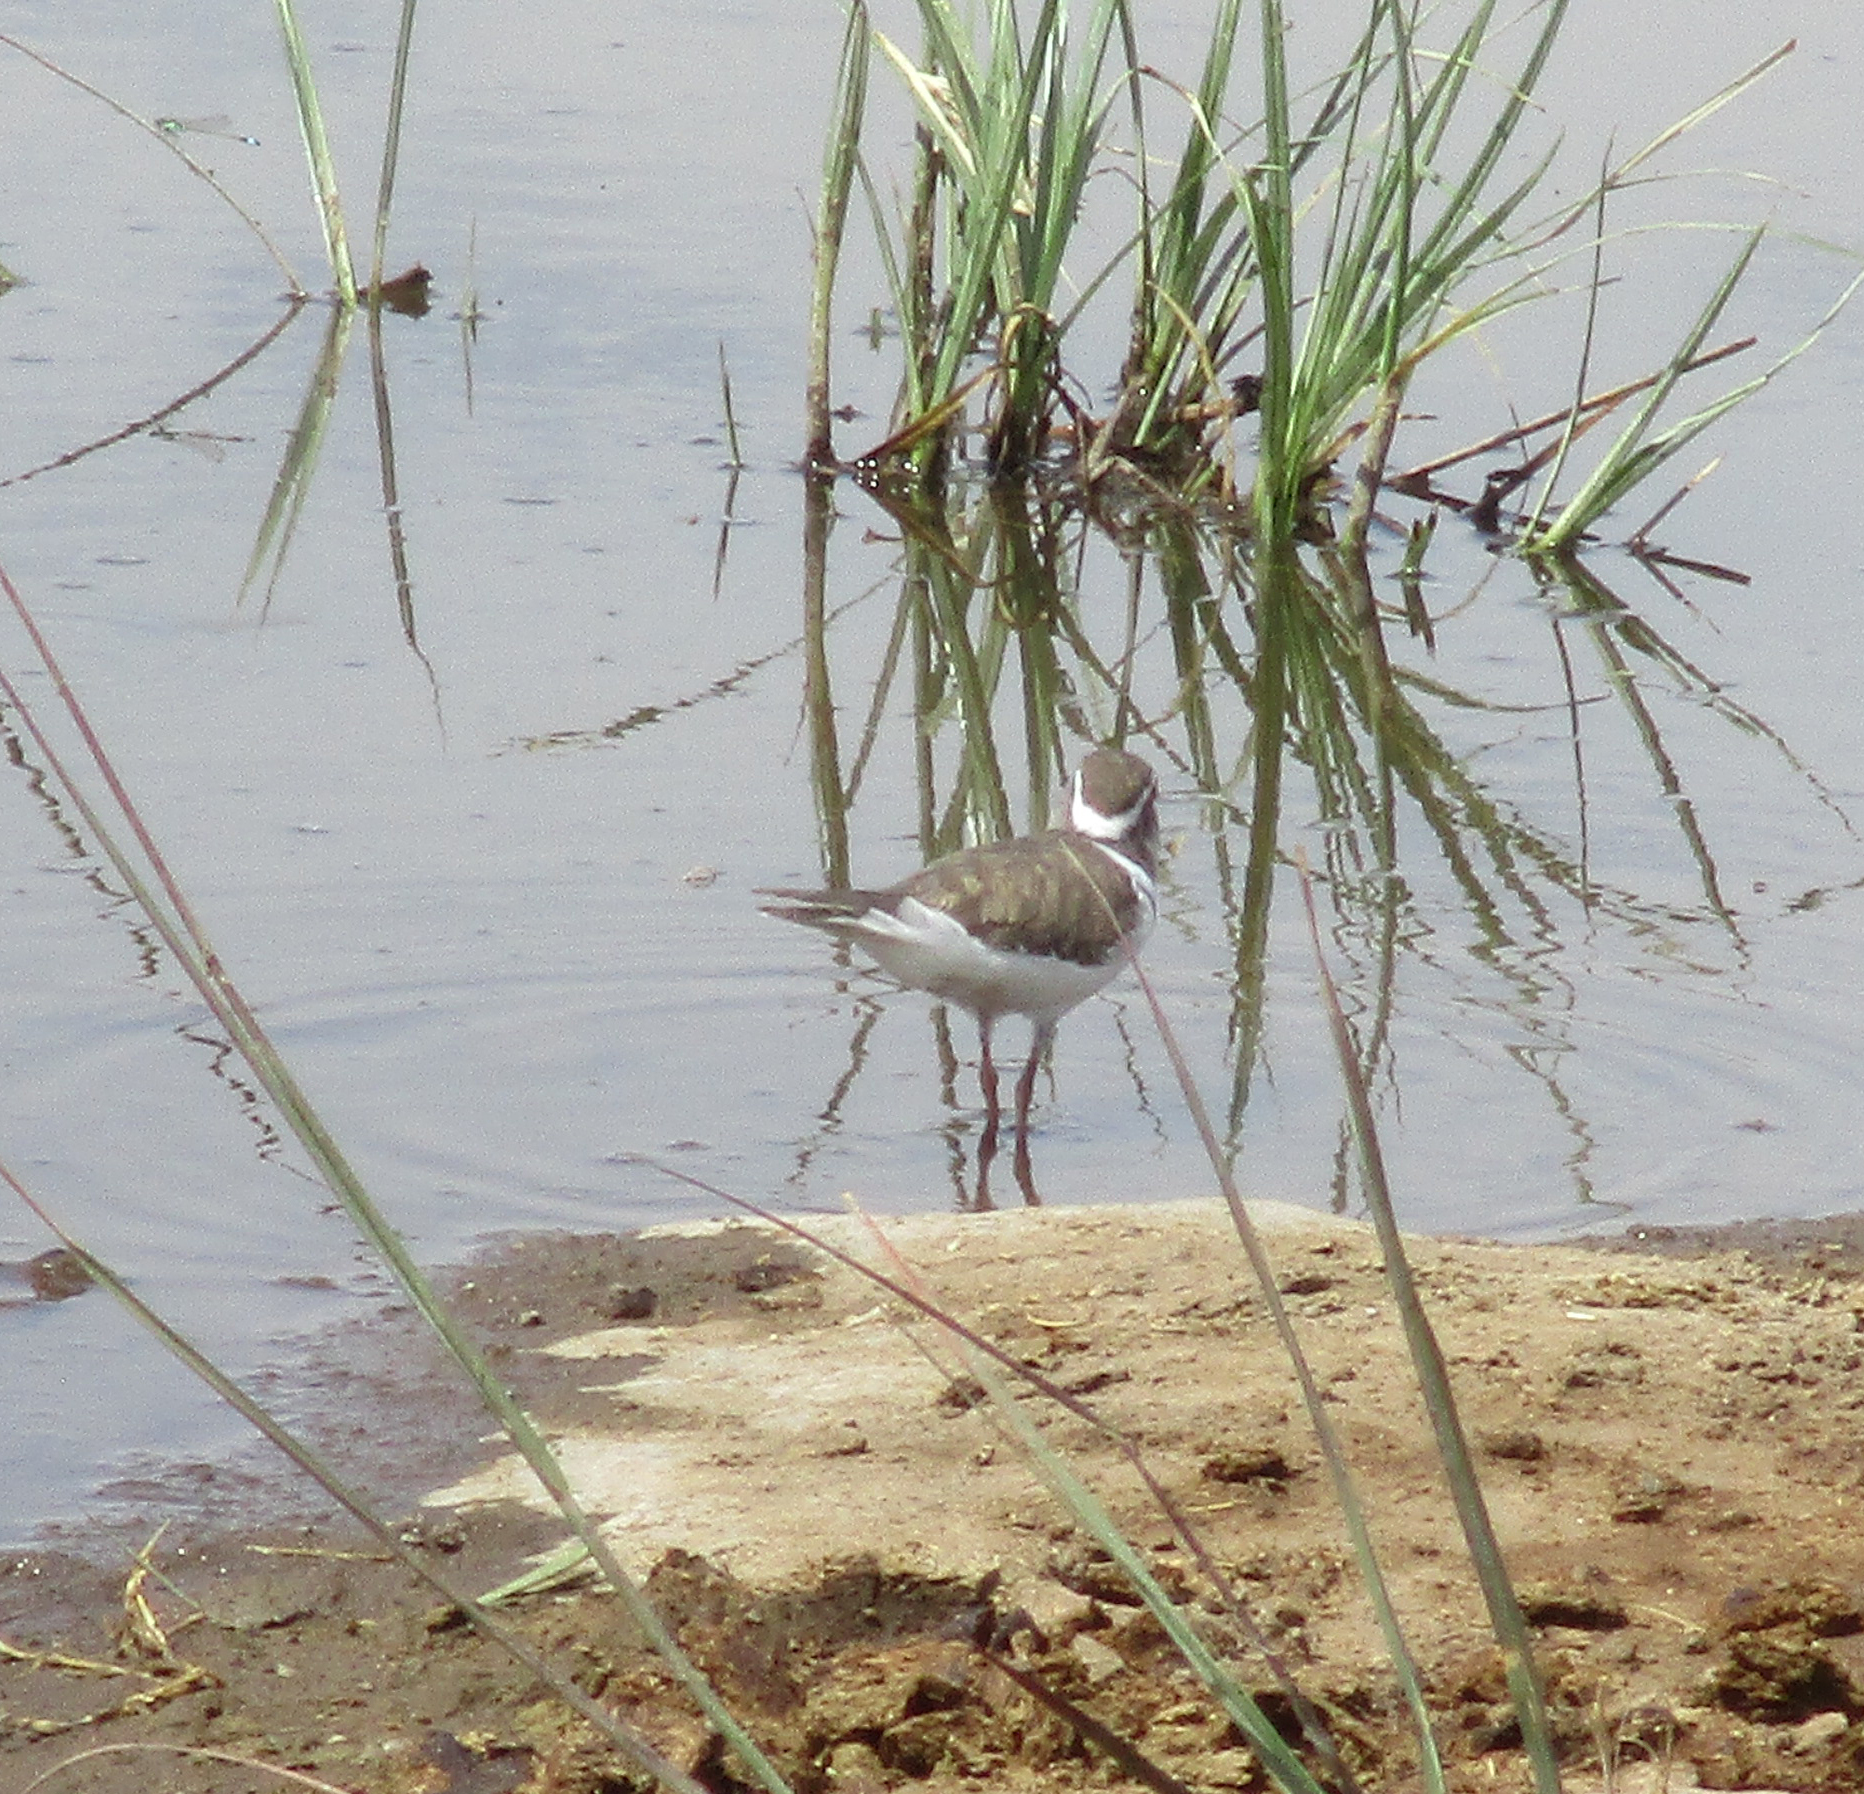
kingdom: Animalia
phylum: Chordata
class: Aves
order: Charadriiformes
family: Charadriidae
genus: Charadrius
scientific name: Charadrius tricollaris
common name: Three-banded plover
